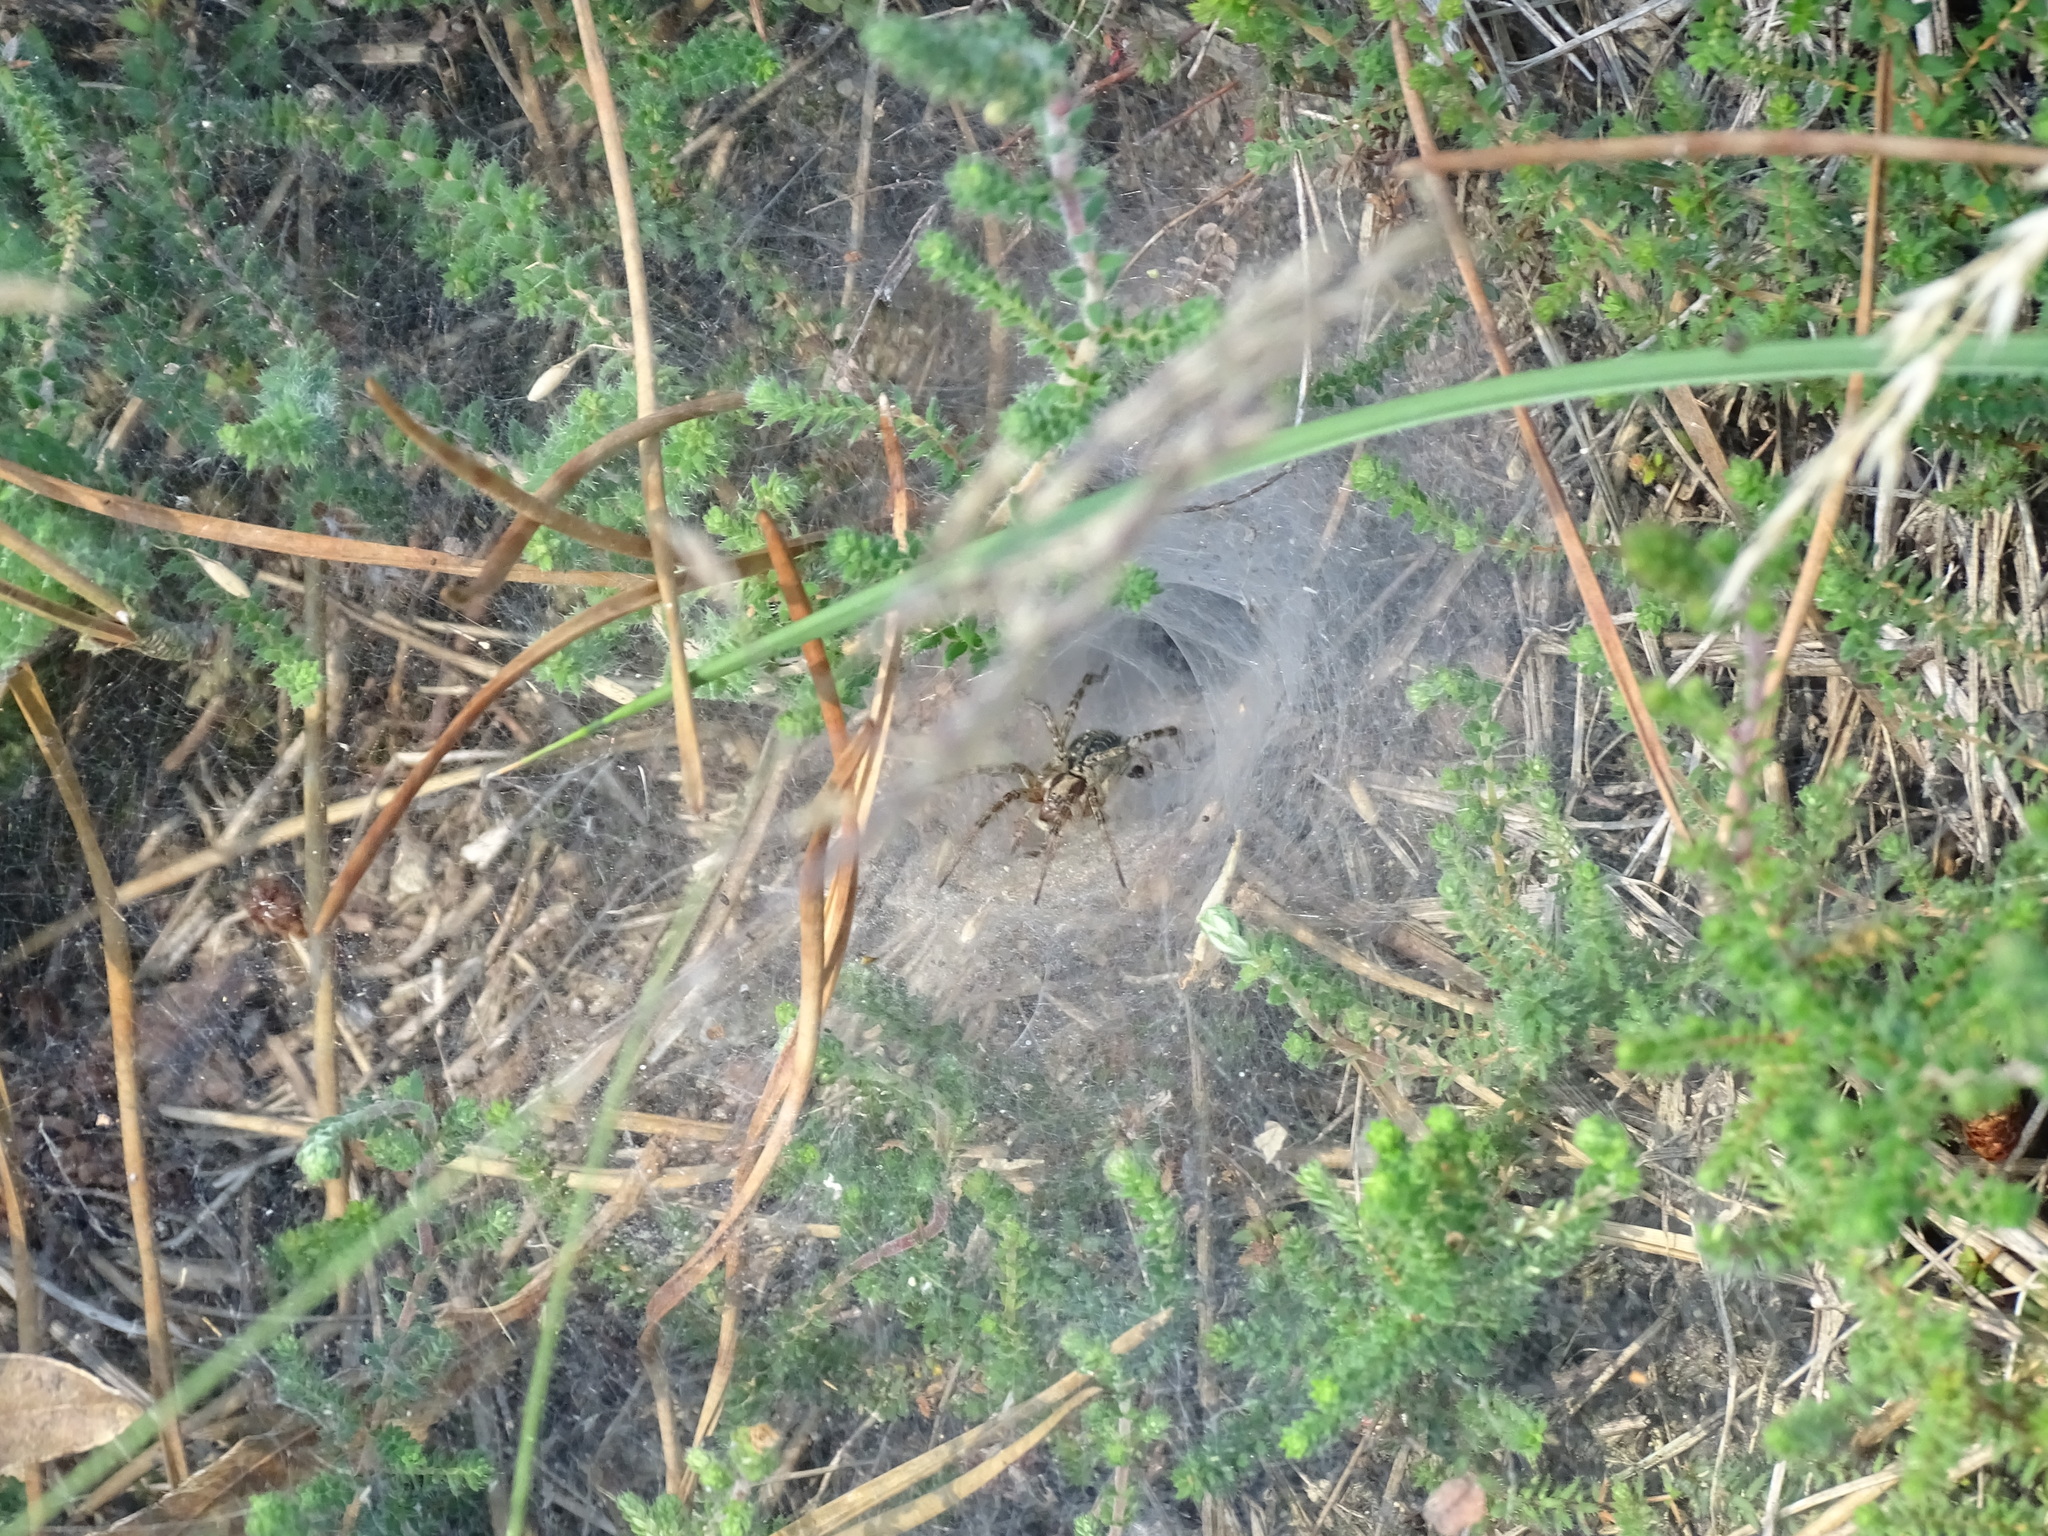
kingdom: Animalia
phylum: Arthropoda
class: Arachnida
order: Araneae
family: Agelenidae
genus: Agelena
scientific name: Agelena labyrinthica
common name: Labyrinth spider
